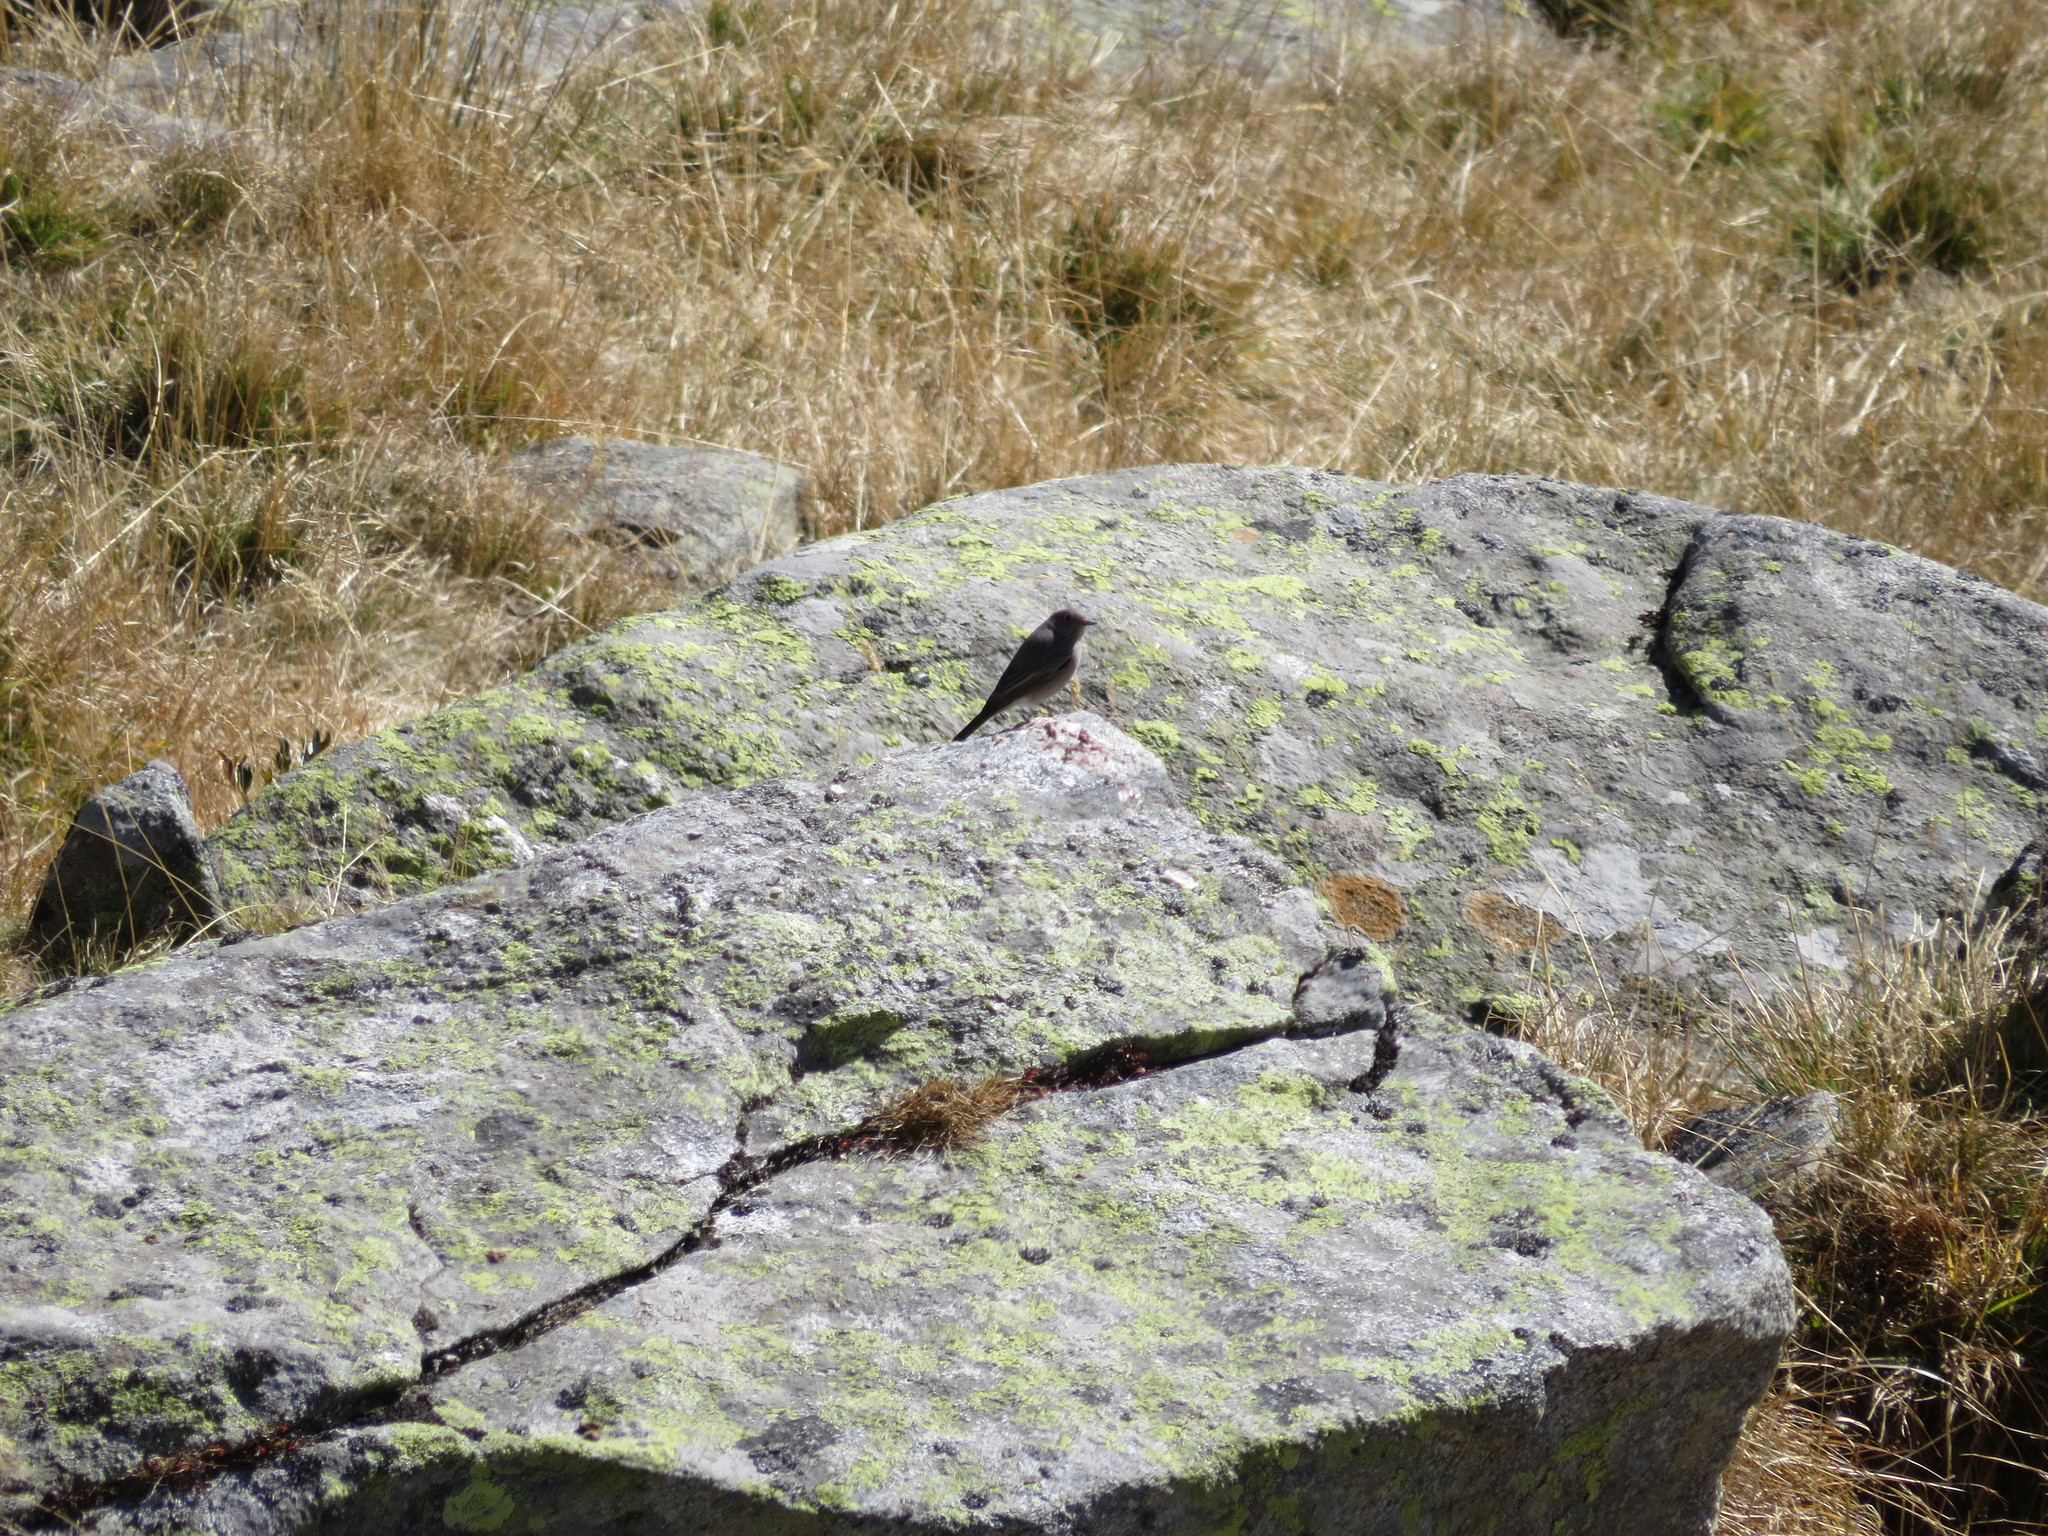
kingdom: Animalia
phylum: Chordata
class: Aves
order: Passeriformes
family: Muscicapidae
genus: Phoenicurus
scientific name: Phoenicurus ochruros
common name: Black redstart
